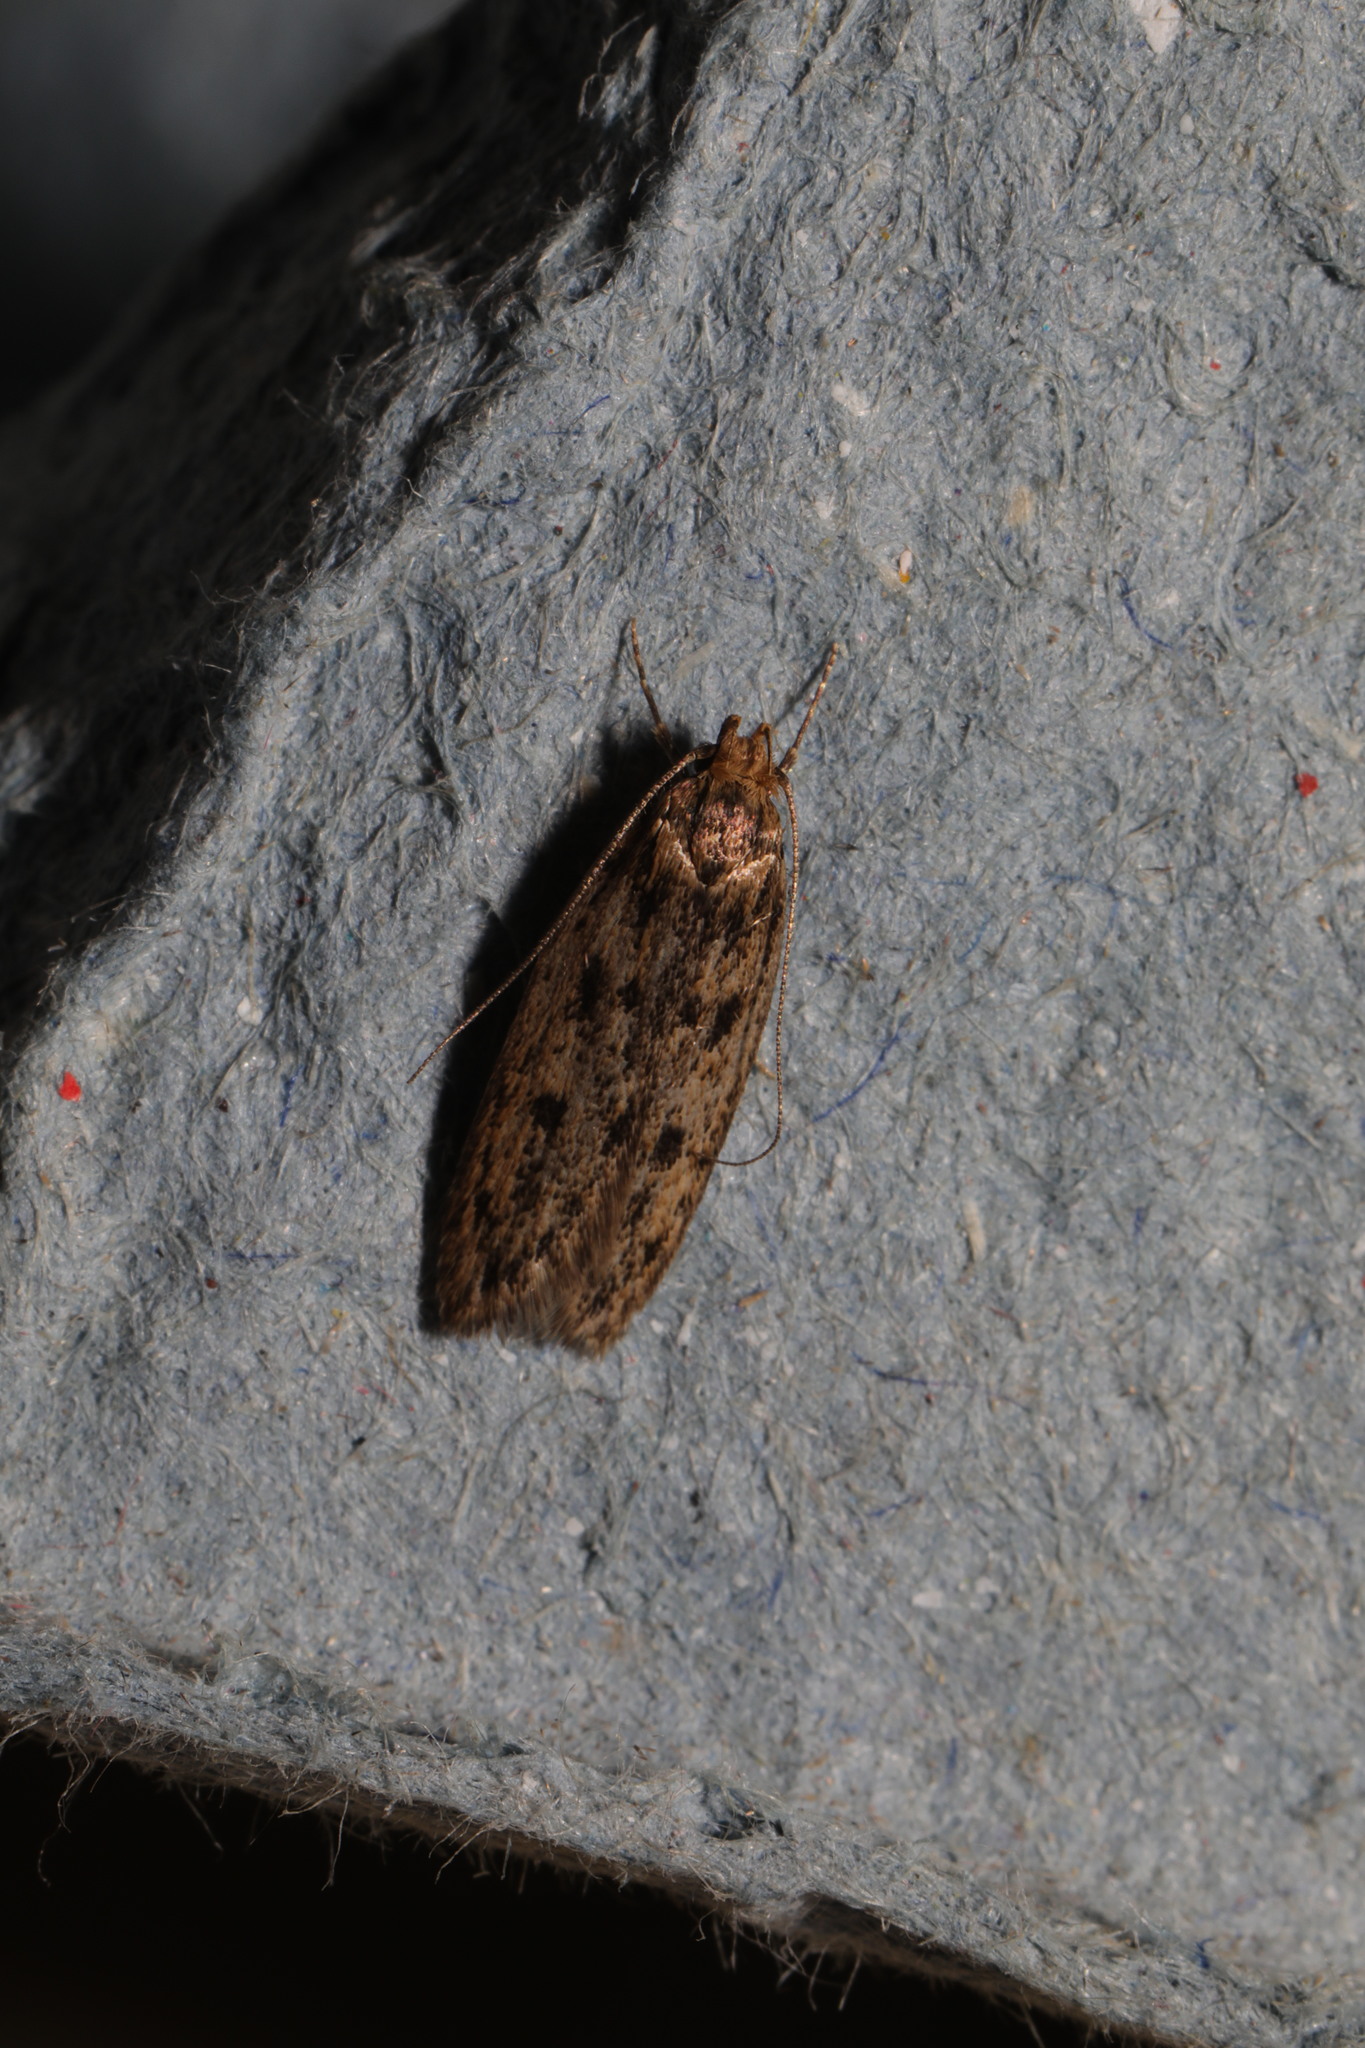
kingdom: Animalia
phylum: Arthropoda
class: Insecta
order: Lepidoptera
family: Oecophoridae
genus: Hofmannophila
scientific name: Hofmannophila pseudospretella
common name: Brown house moth
